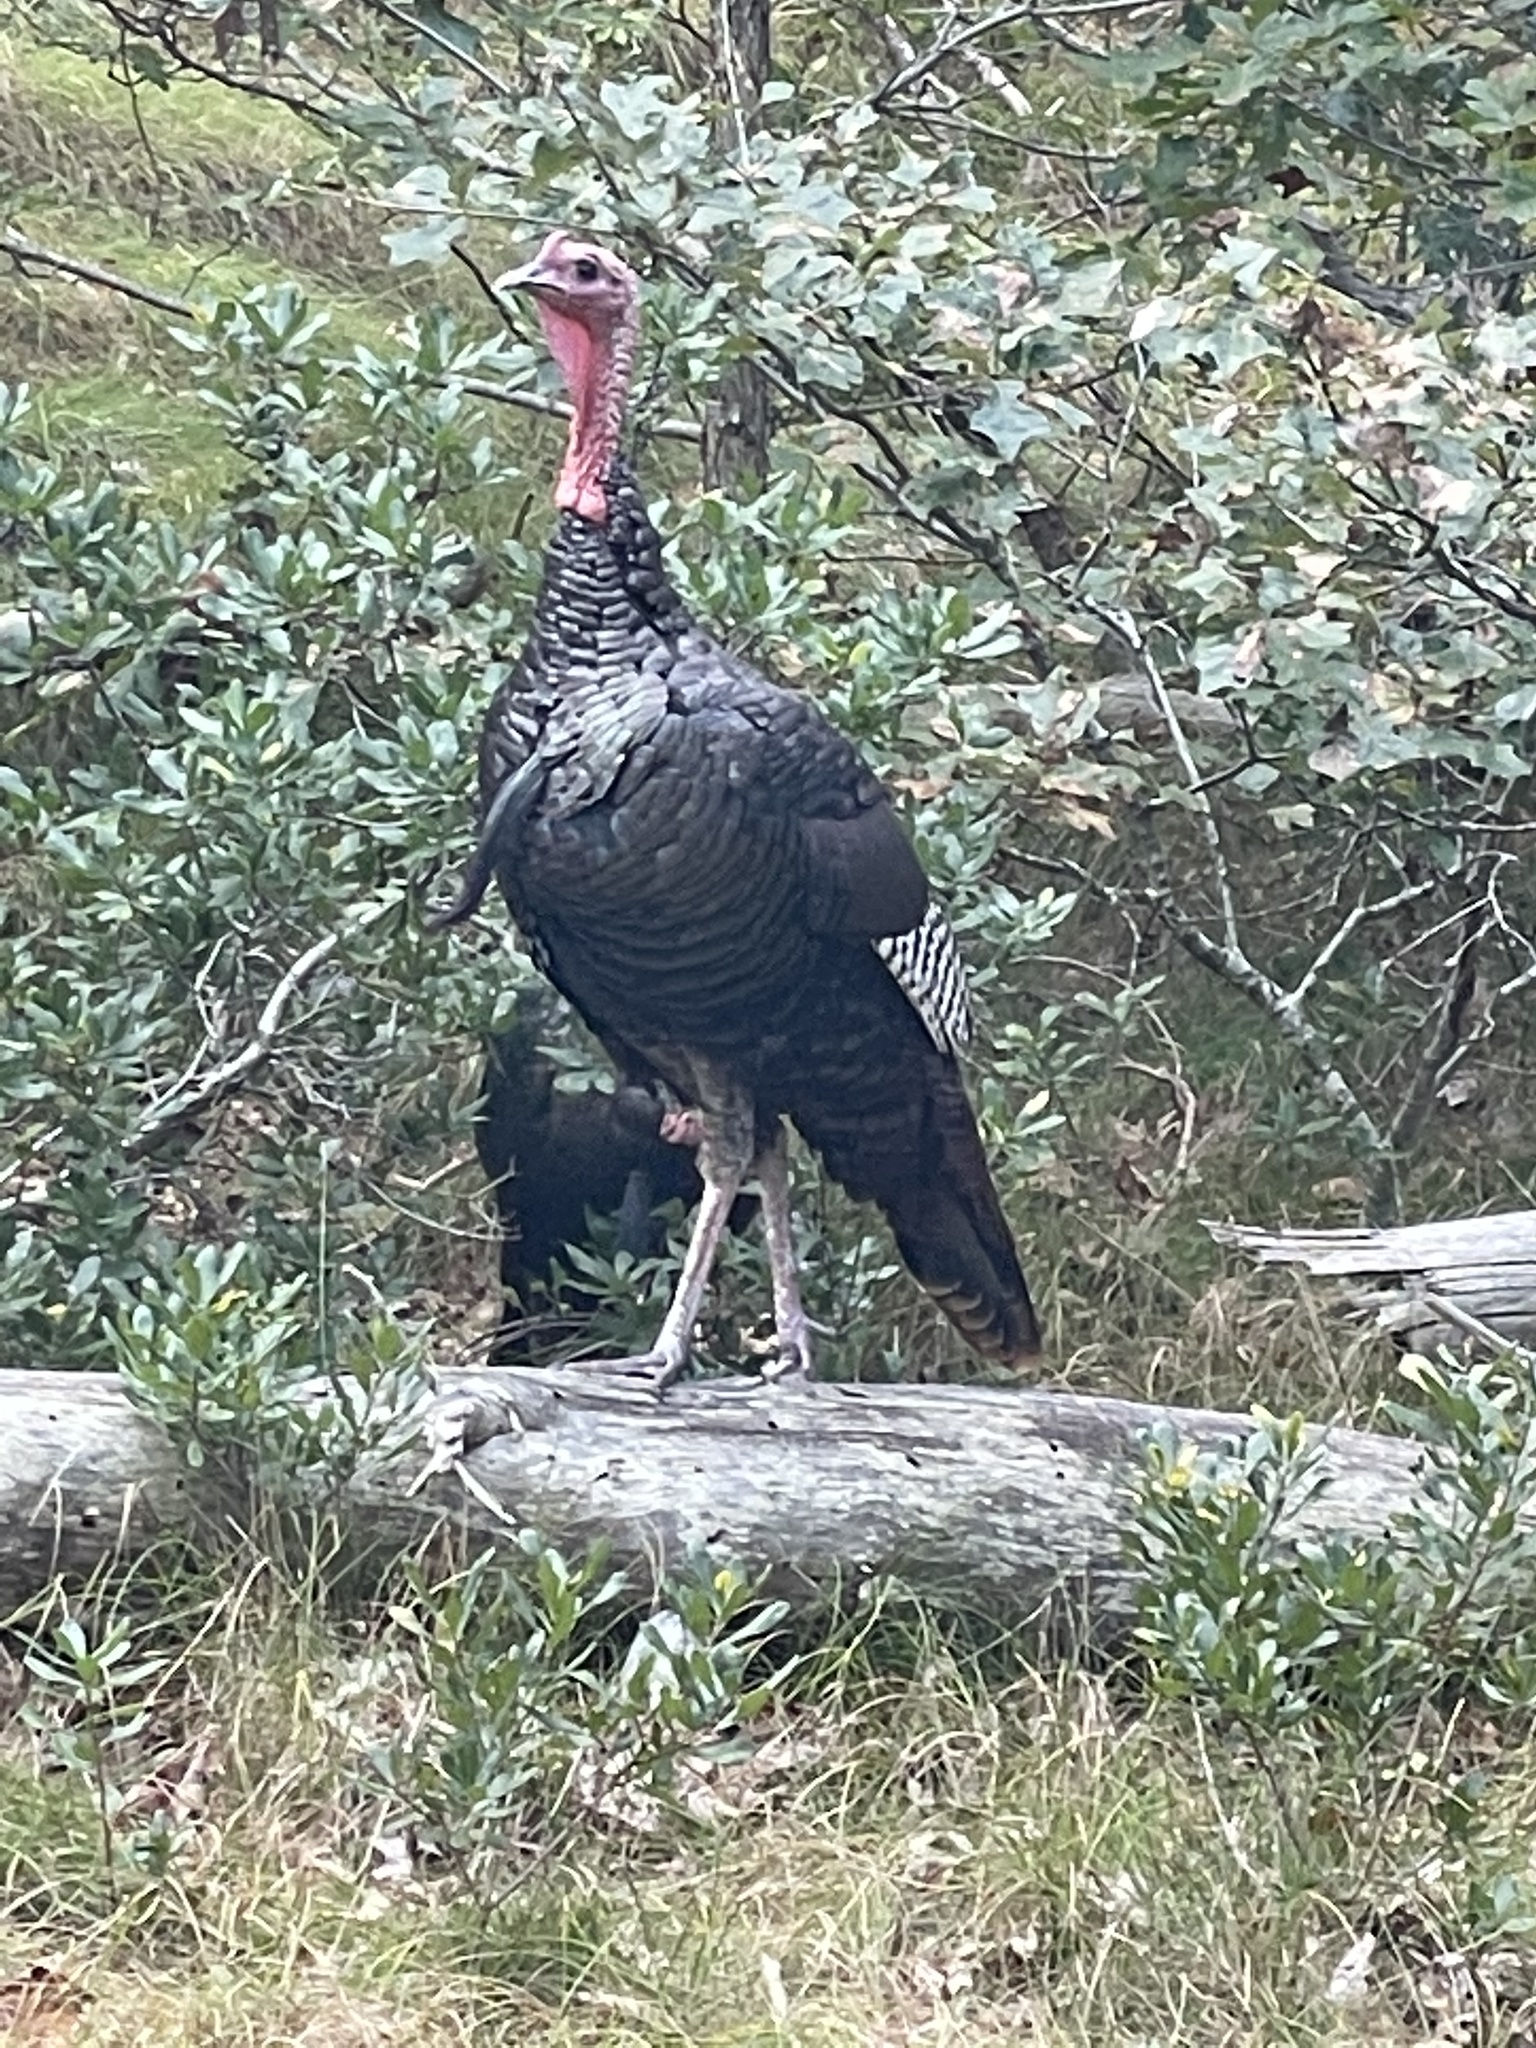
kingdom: Animalia
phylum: Chordata
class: Aves
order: Galliformes
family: Phasianidae
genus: Meleagris
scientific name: Meleagris gallopavo
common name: Wild turkey
